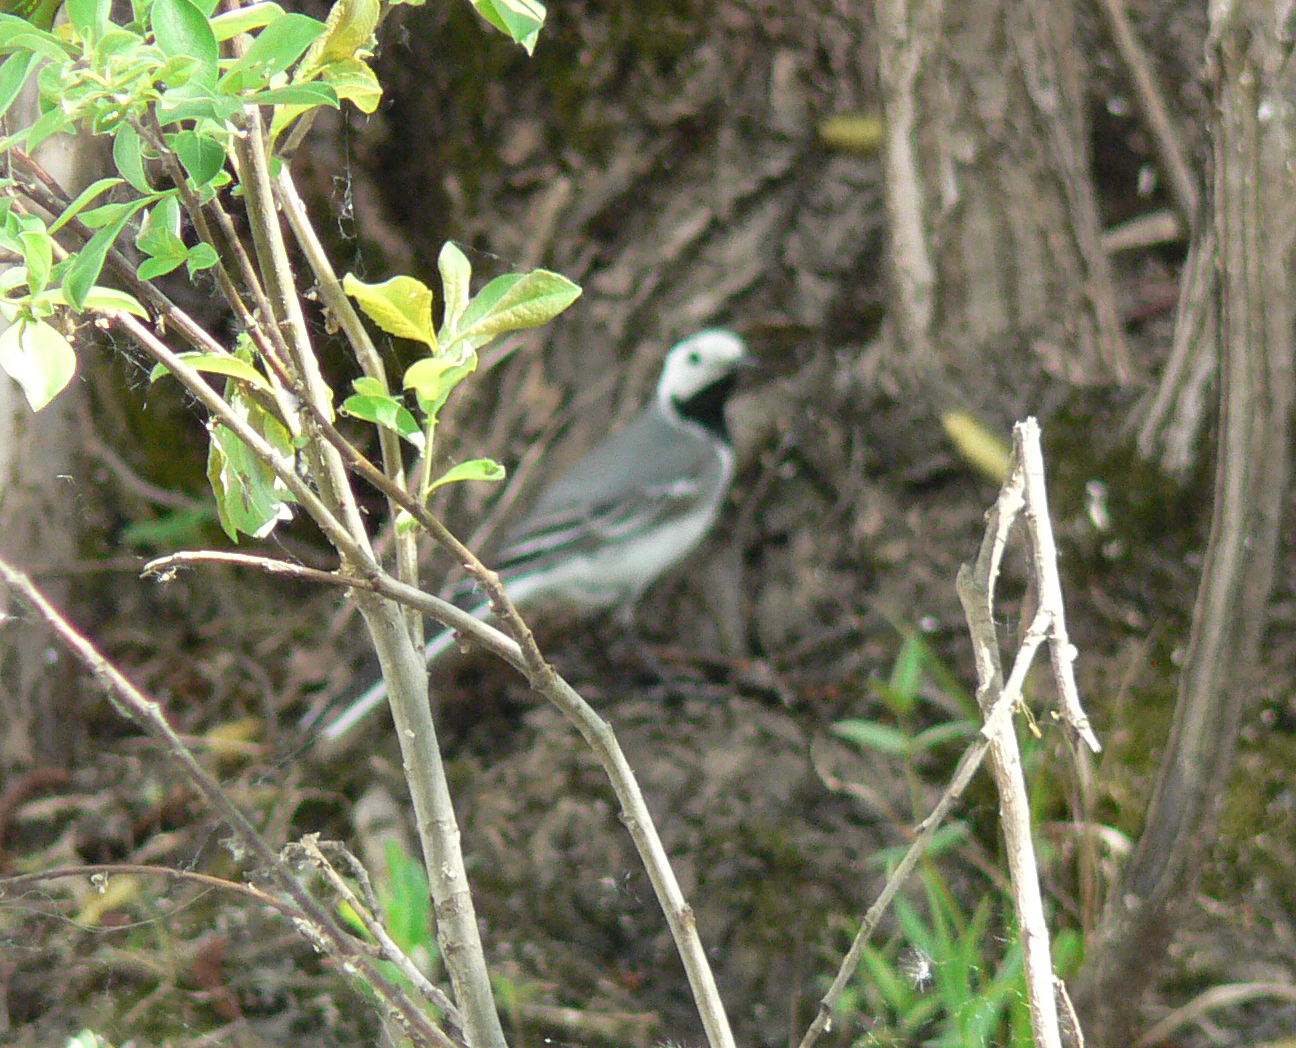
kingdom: Animalia
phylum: Chordata
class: Aves
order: Passeriformes
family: Motacillidae
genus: Motacilla
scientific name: Motacilla alba
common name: White wagtail
